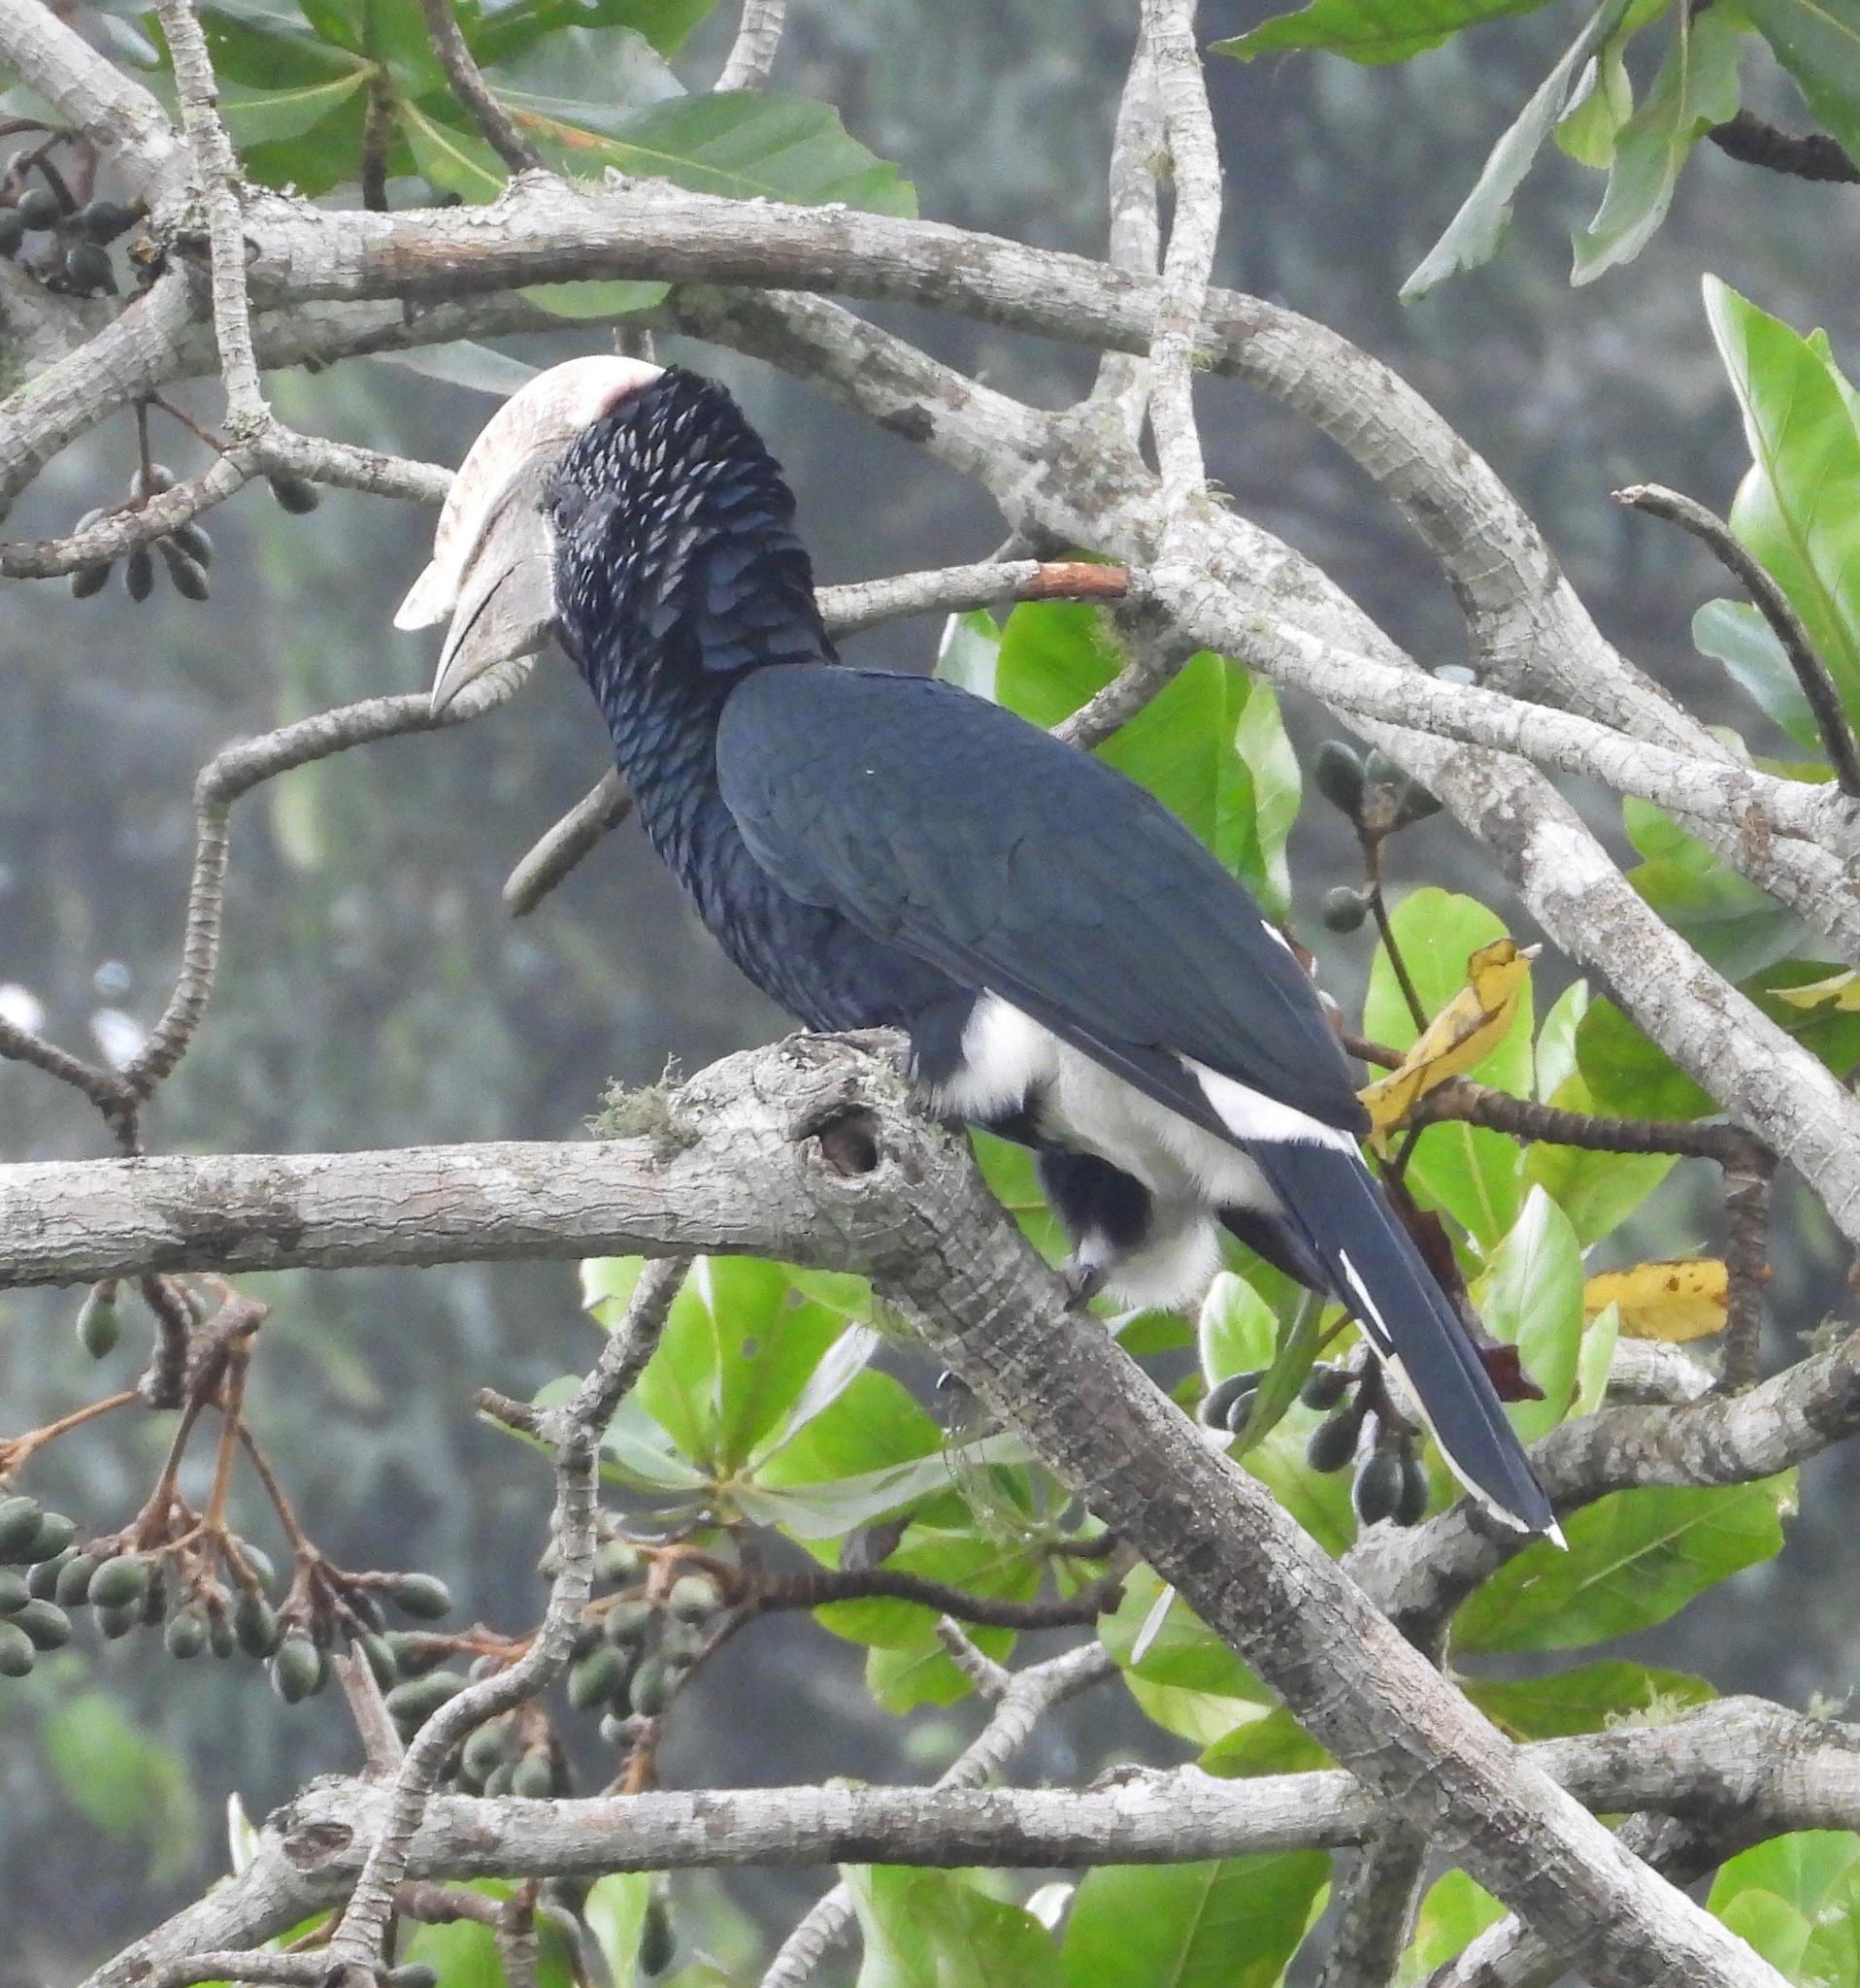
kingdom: Animalia
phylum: Chordata
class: Aves
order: Bucerotiformes
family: Bucerotidae
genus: Bycanistes
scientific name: Bycanistes brevis
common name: Silvery-cheeked hornbill
